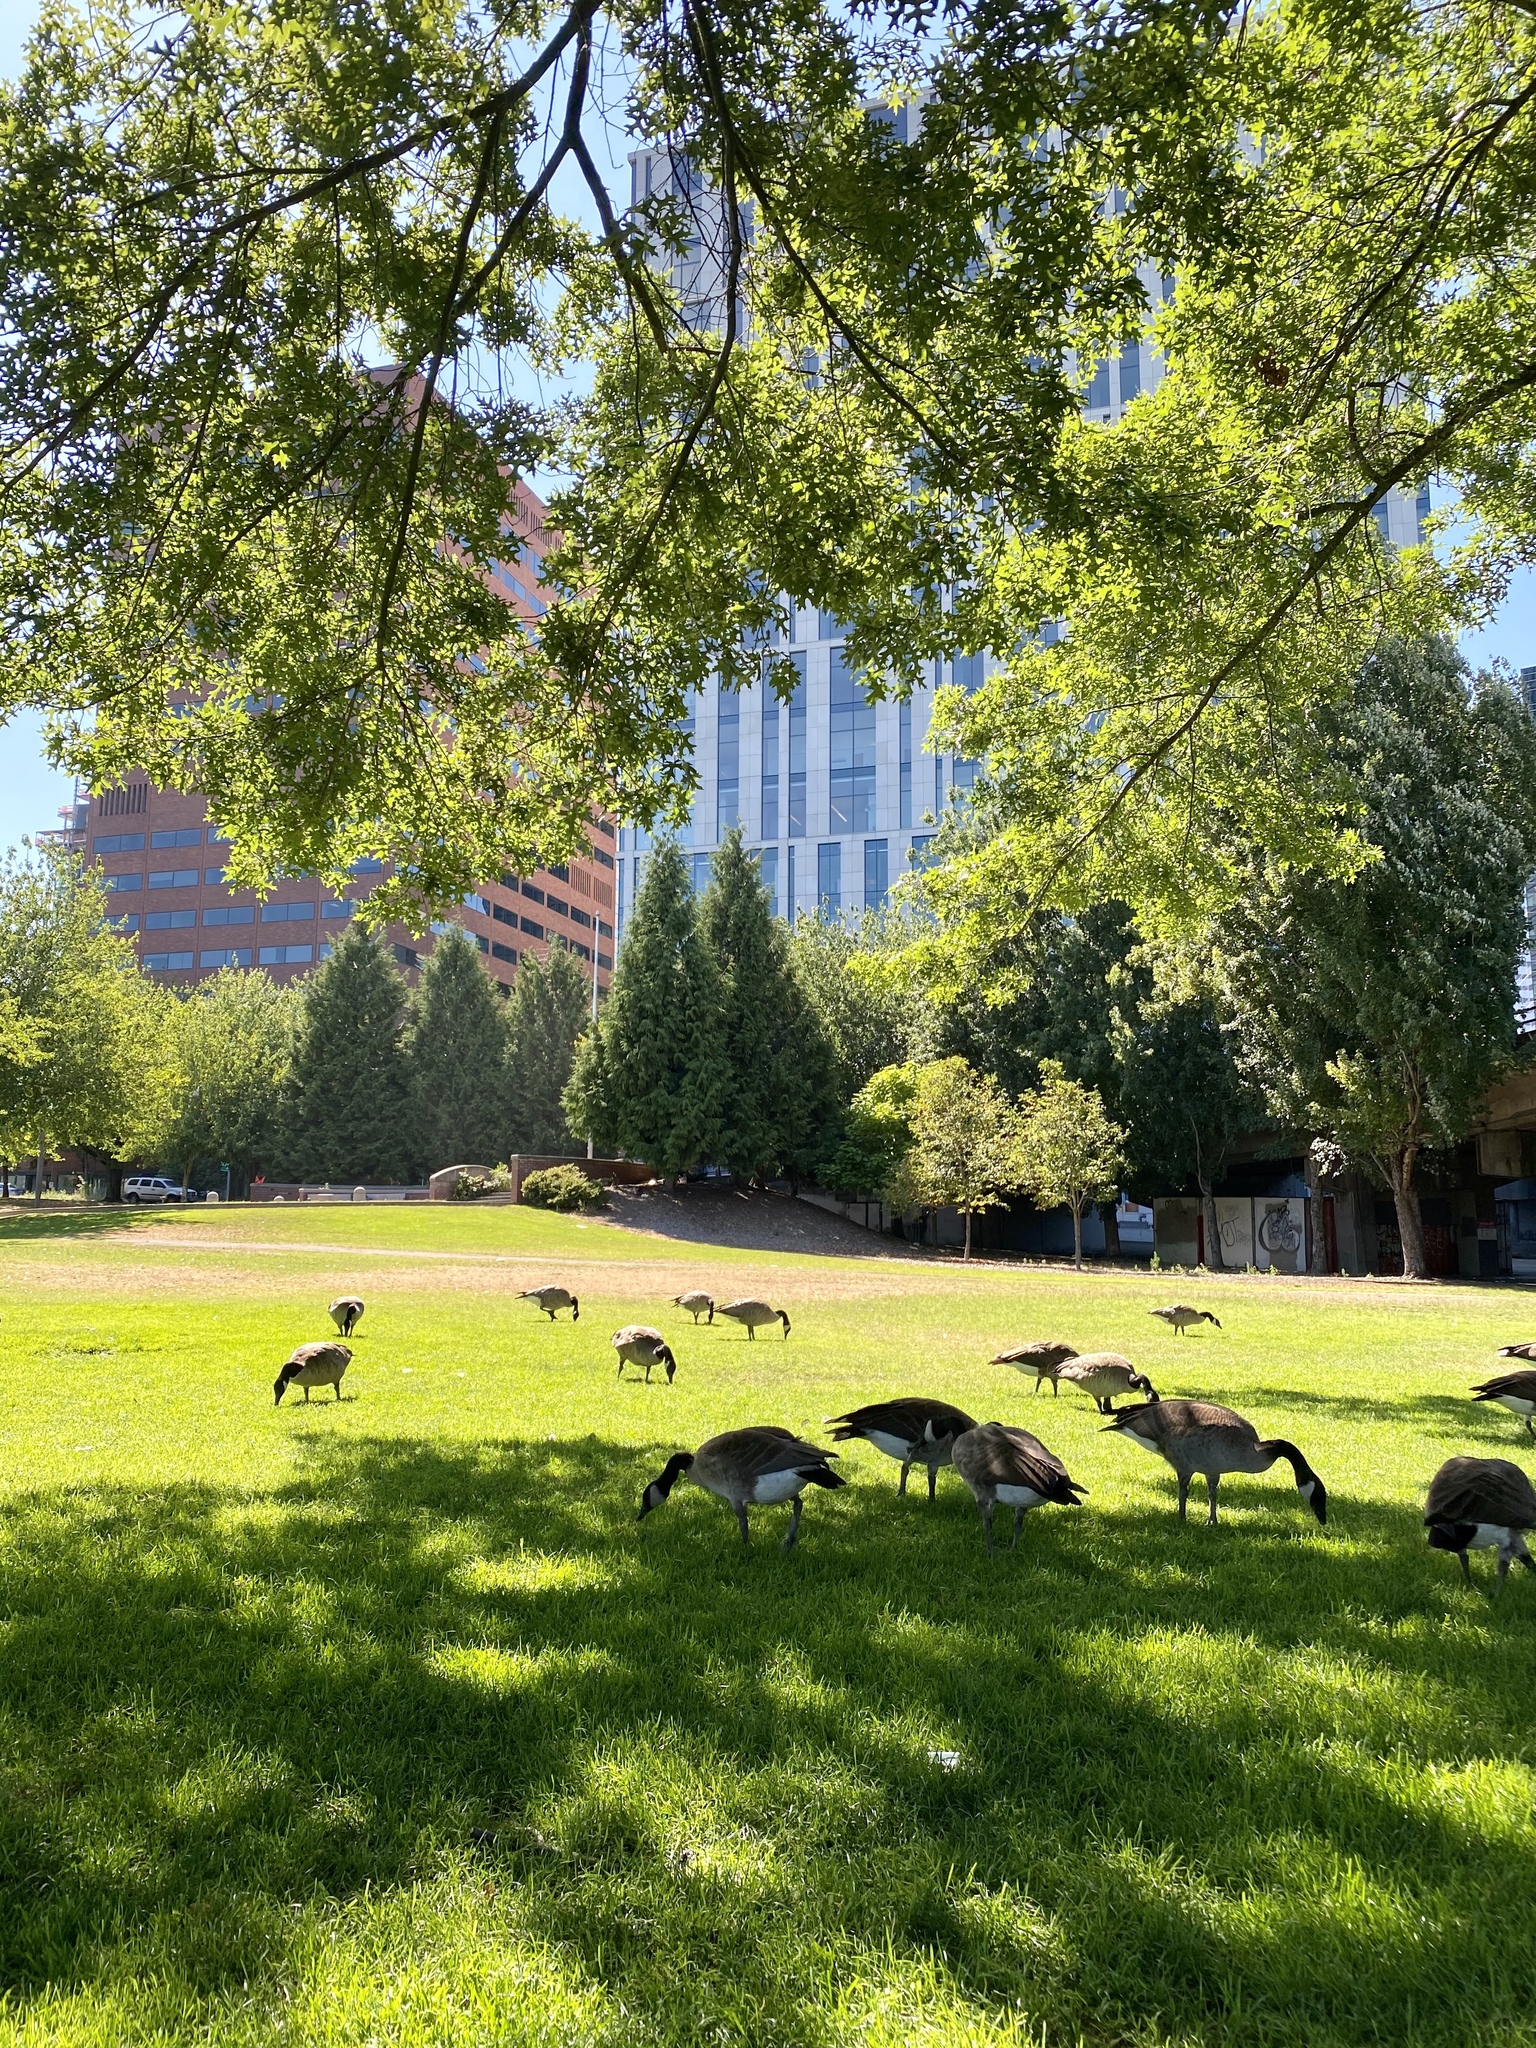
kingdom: Animalia
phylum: Chordata
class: Aves
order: Anseriformes
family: Anatidae
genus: Branta
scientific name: Branta canadensis
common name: Canada goose
